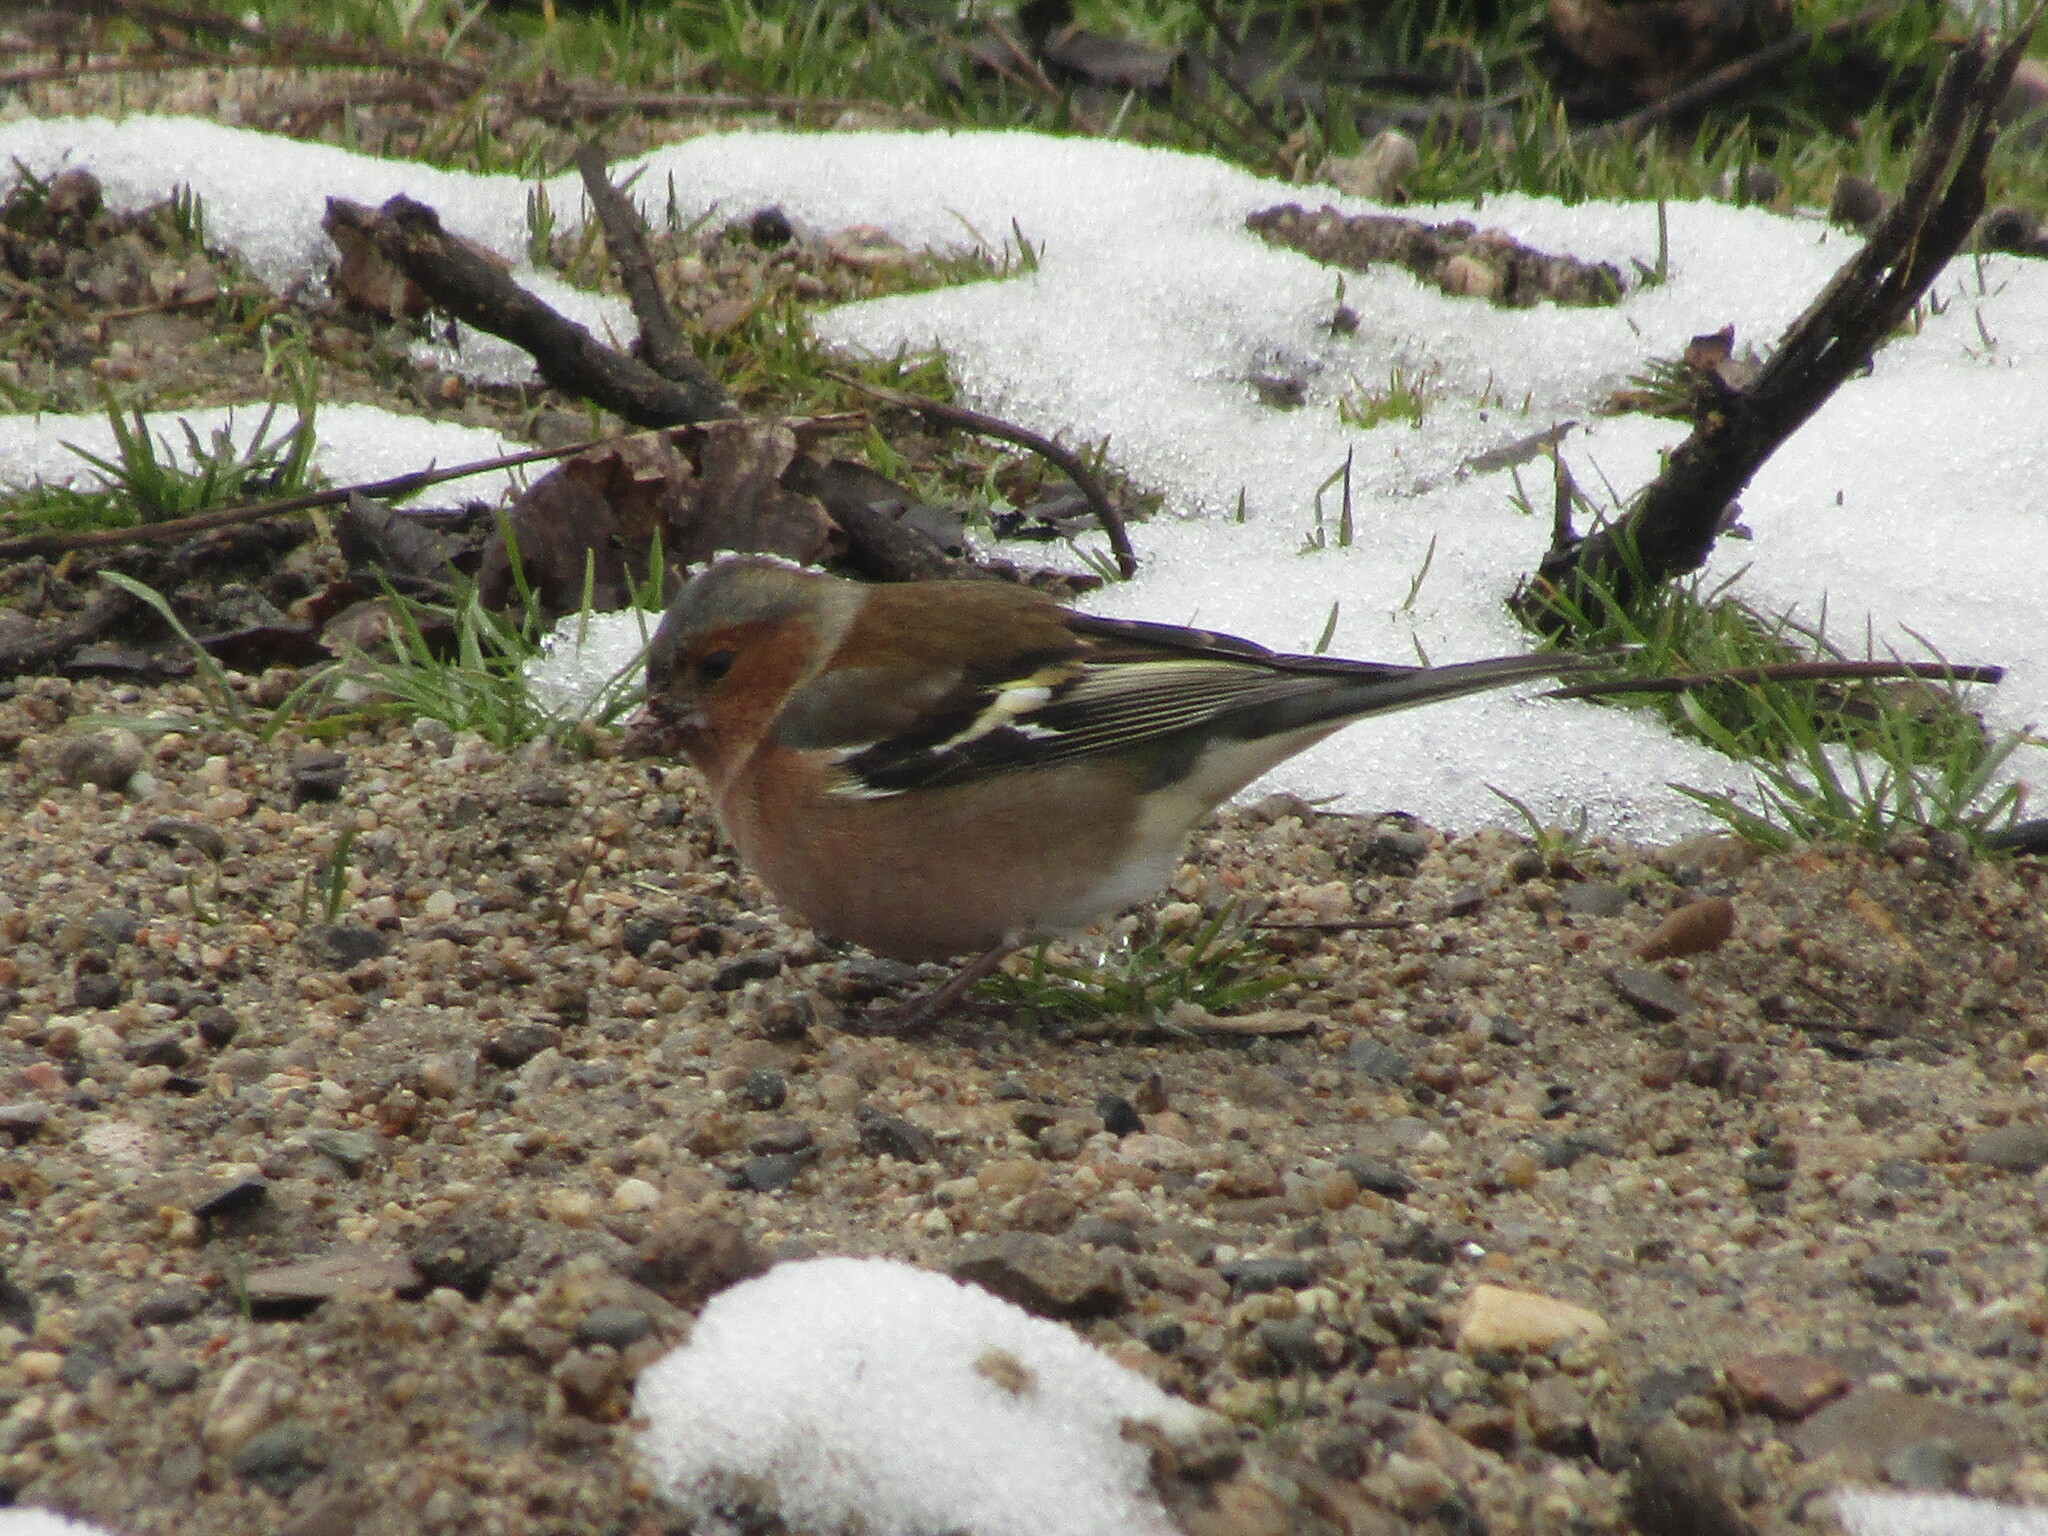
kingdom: Animalia
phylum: Chordata
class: Aves
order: Passeriformes
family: Fringillidae
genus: Fringilla
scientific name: Fringilla coelebs
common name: Common chaffinch
